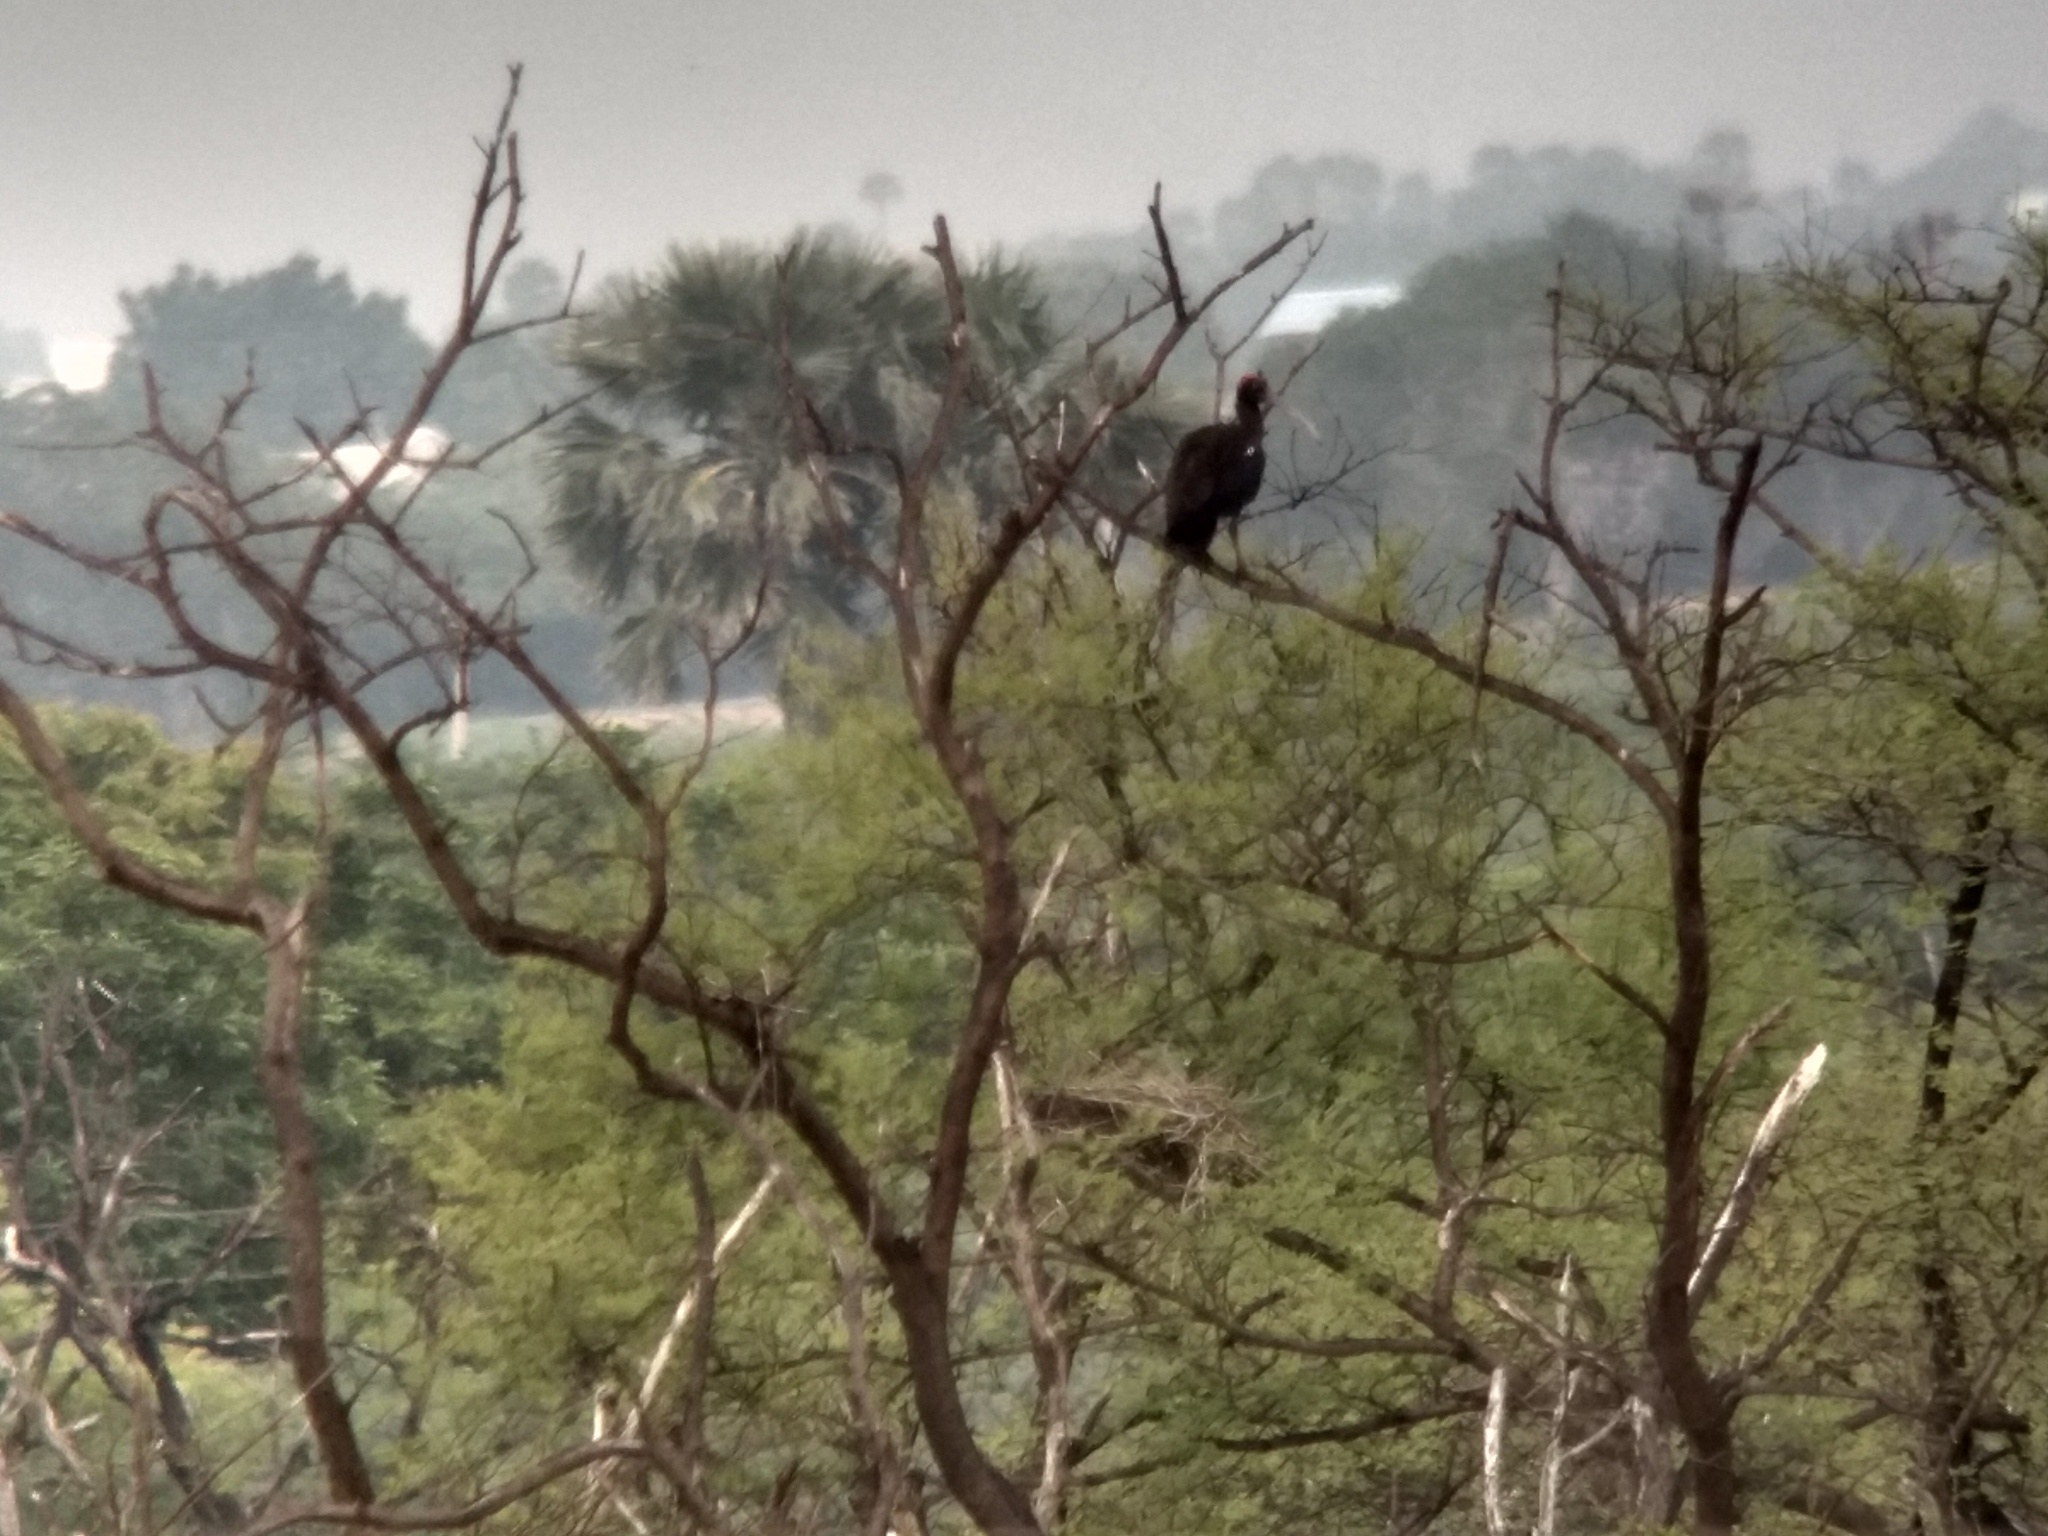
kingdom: Animalia
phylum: Chordata
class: Aves
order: Pelecaniformes
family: Threskiornithidae
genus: Pseudibis
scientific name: Pseudibis papillosa
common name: Red-naped ibis
